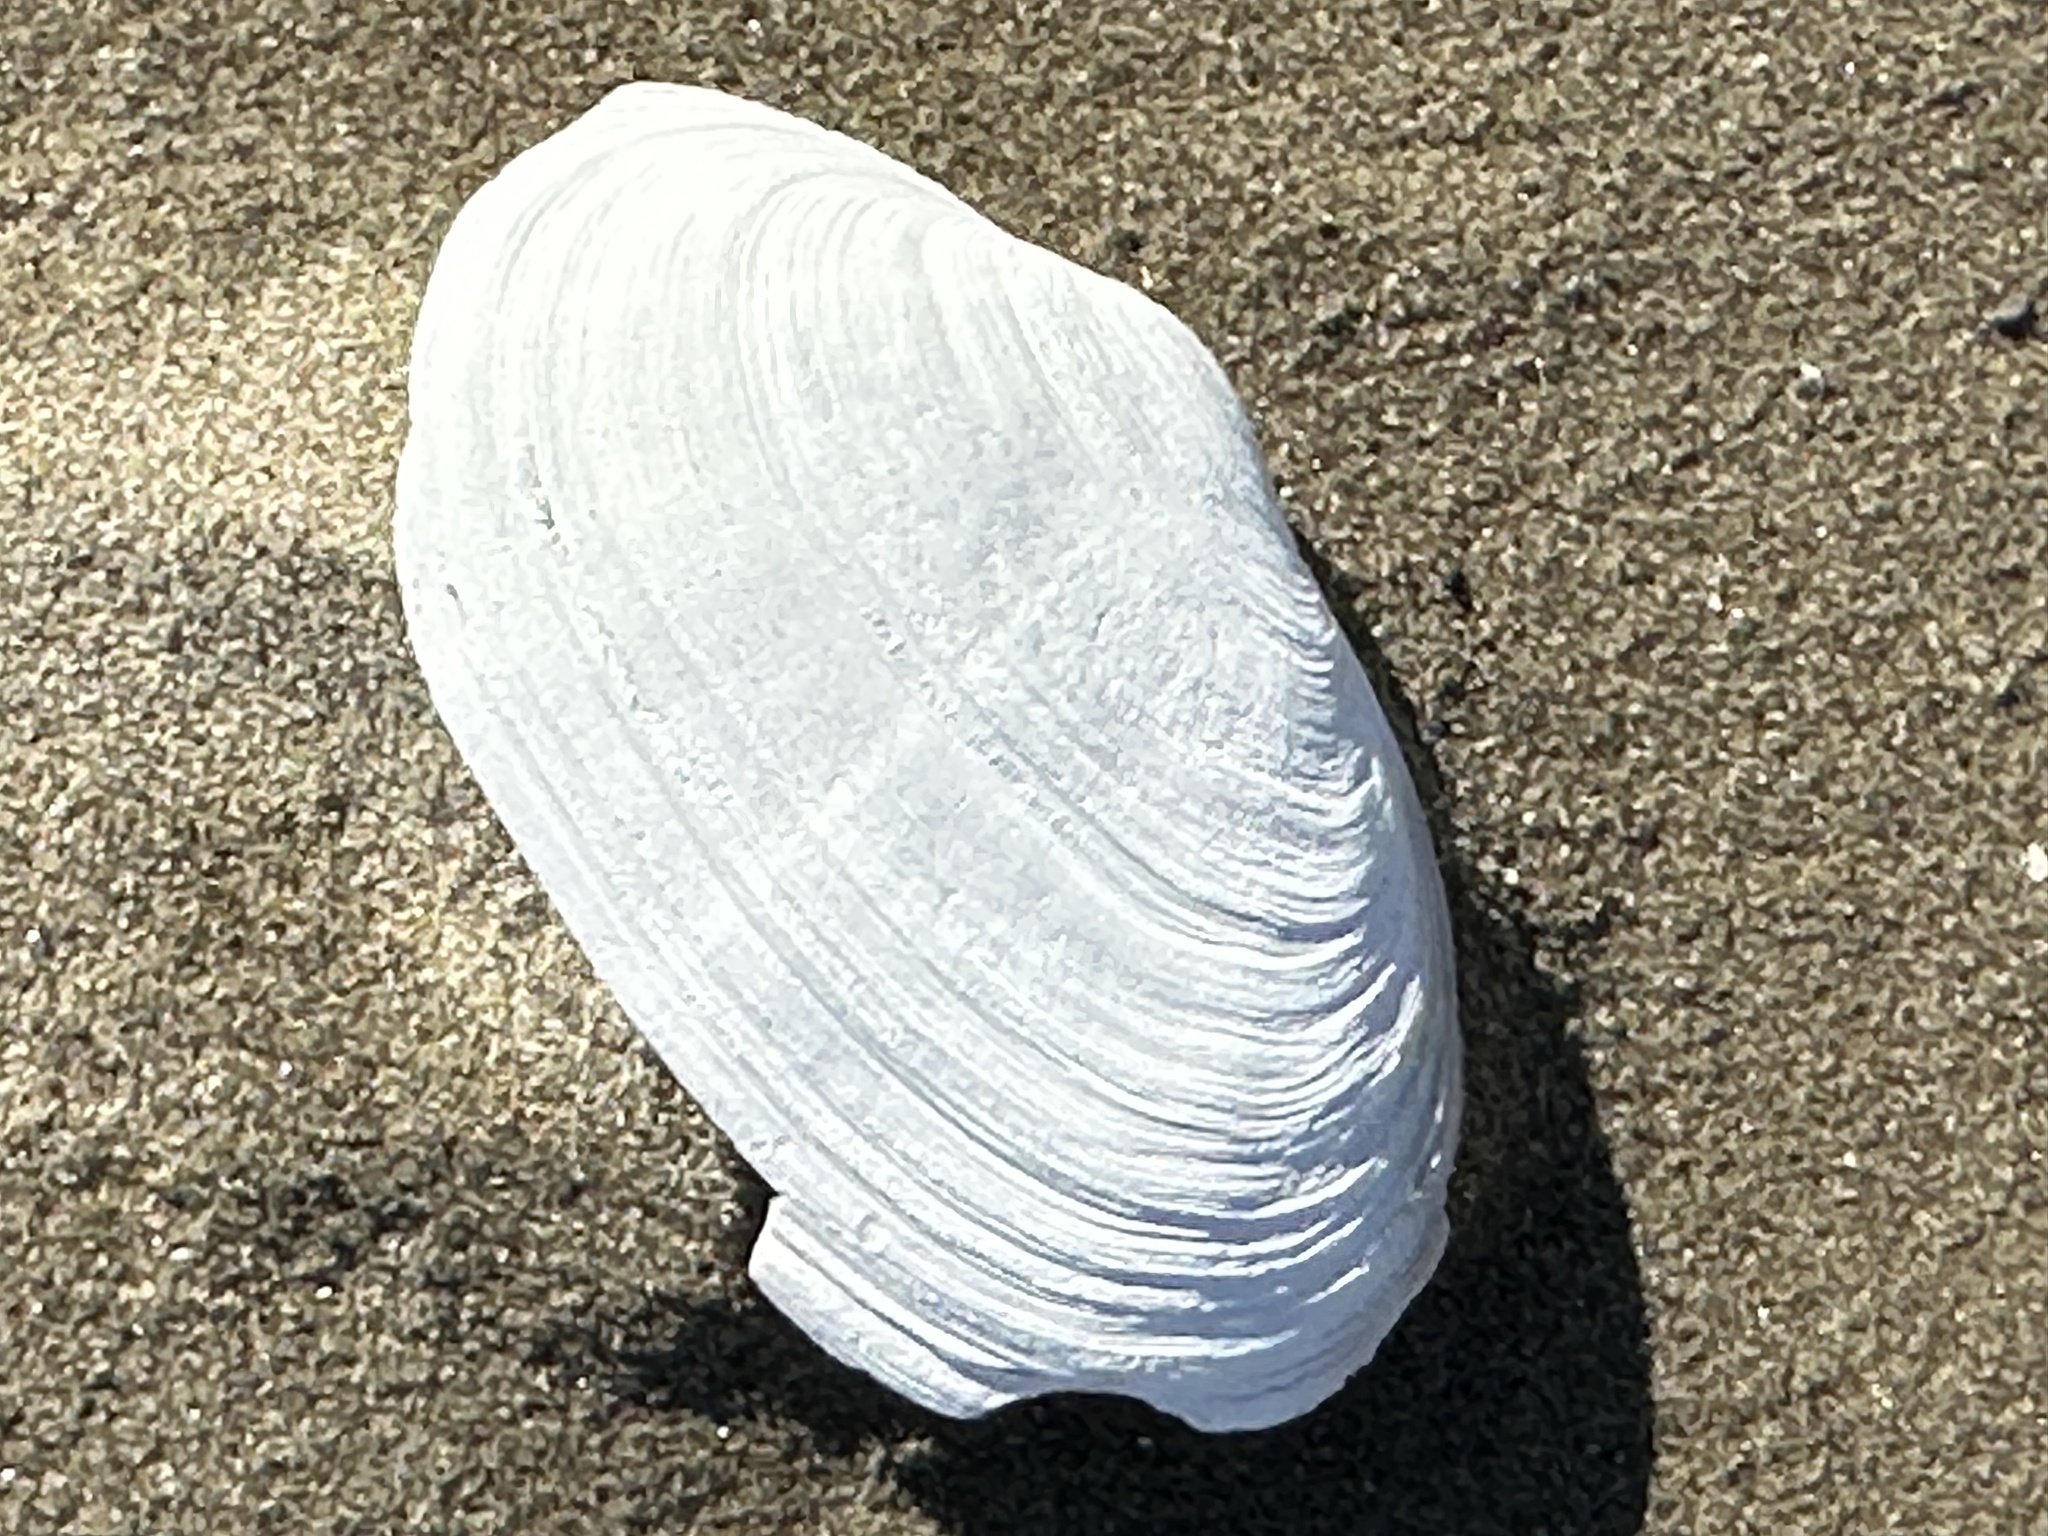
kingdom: Animalia
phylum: Mollusca
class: Bivalvia
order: Myida
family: Myidae
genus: Mya
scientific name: Mya arenaria
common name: Soft-shelled clam
